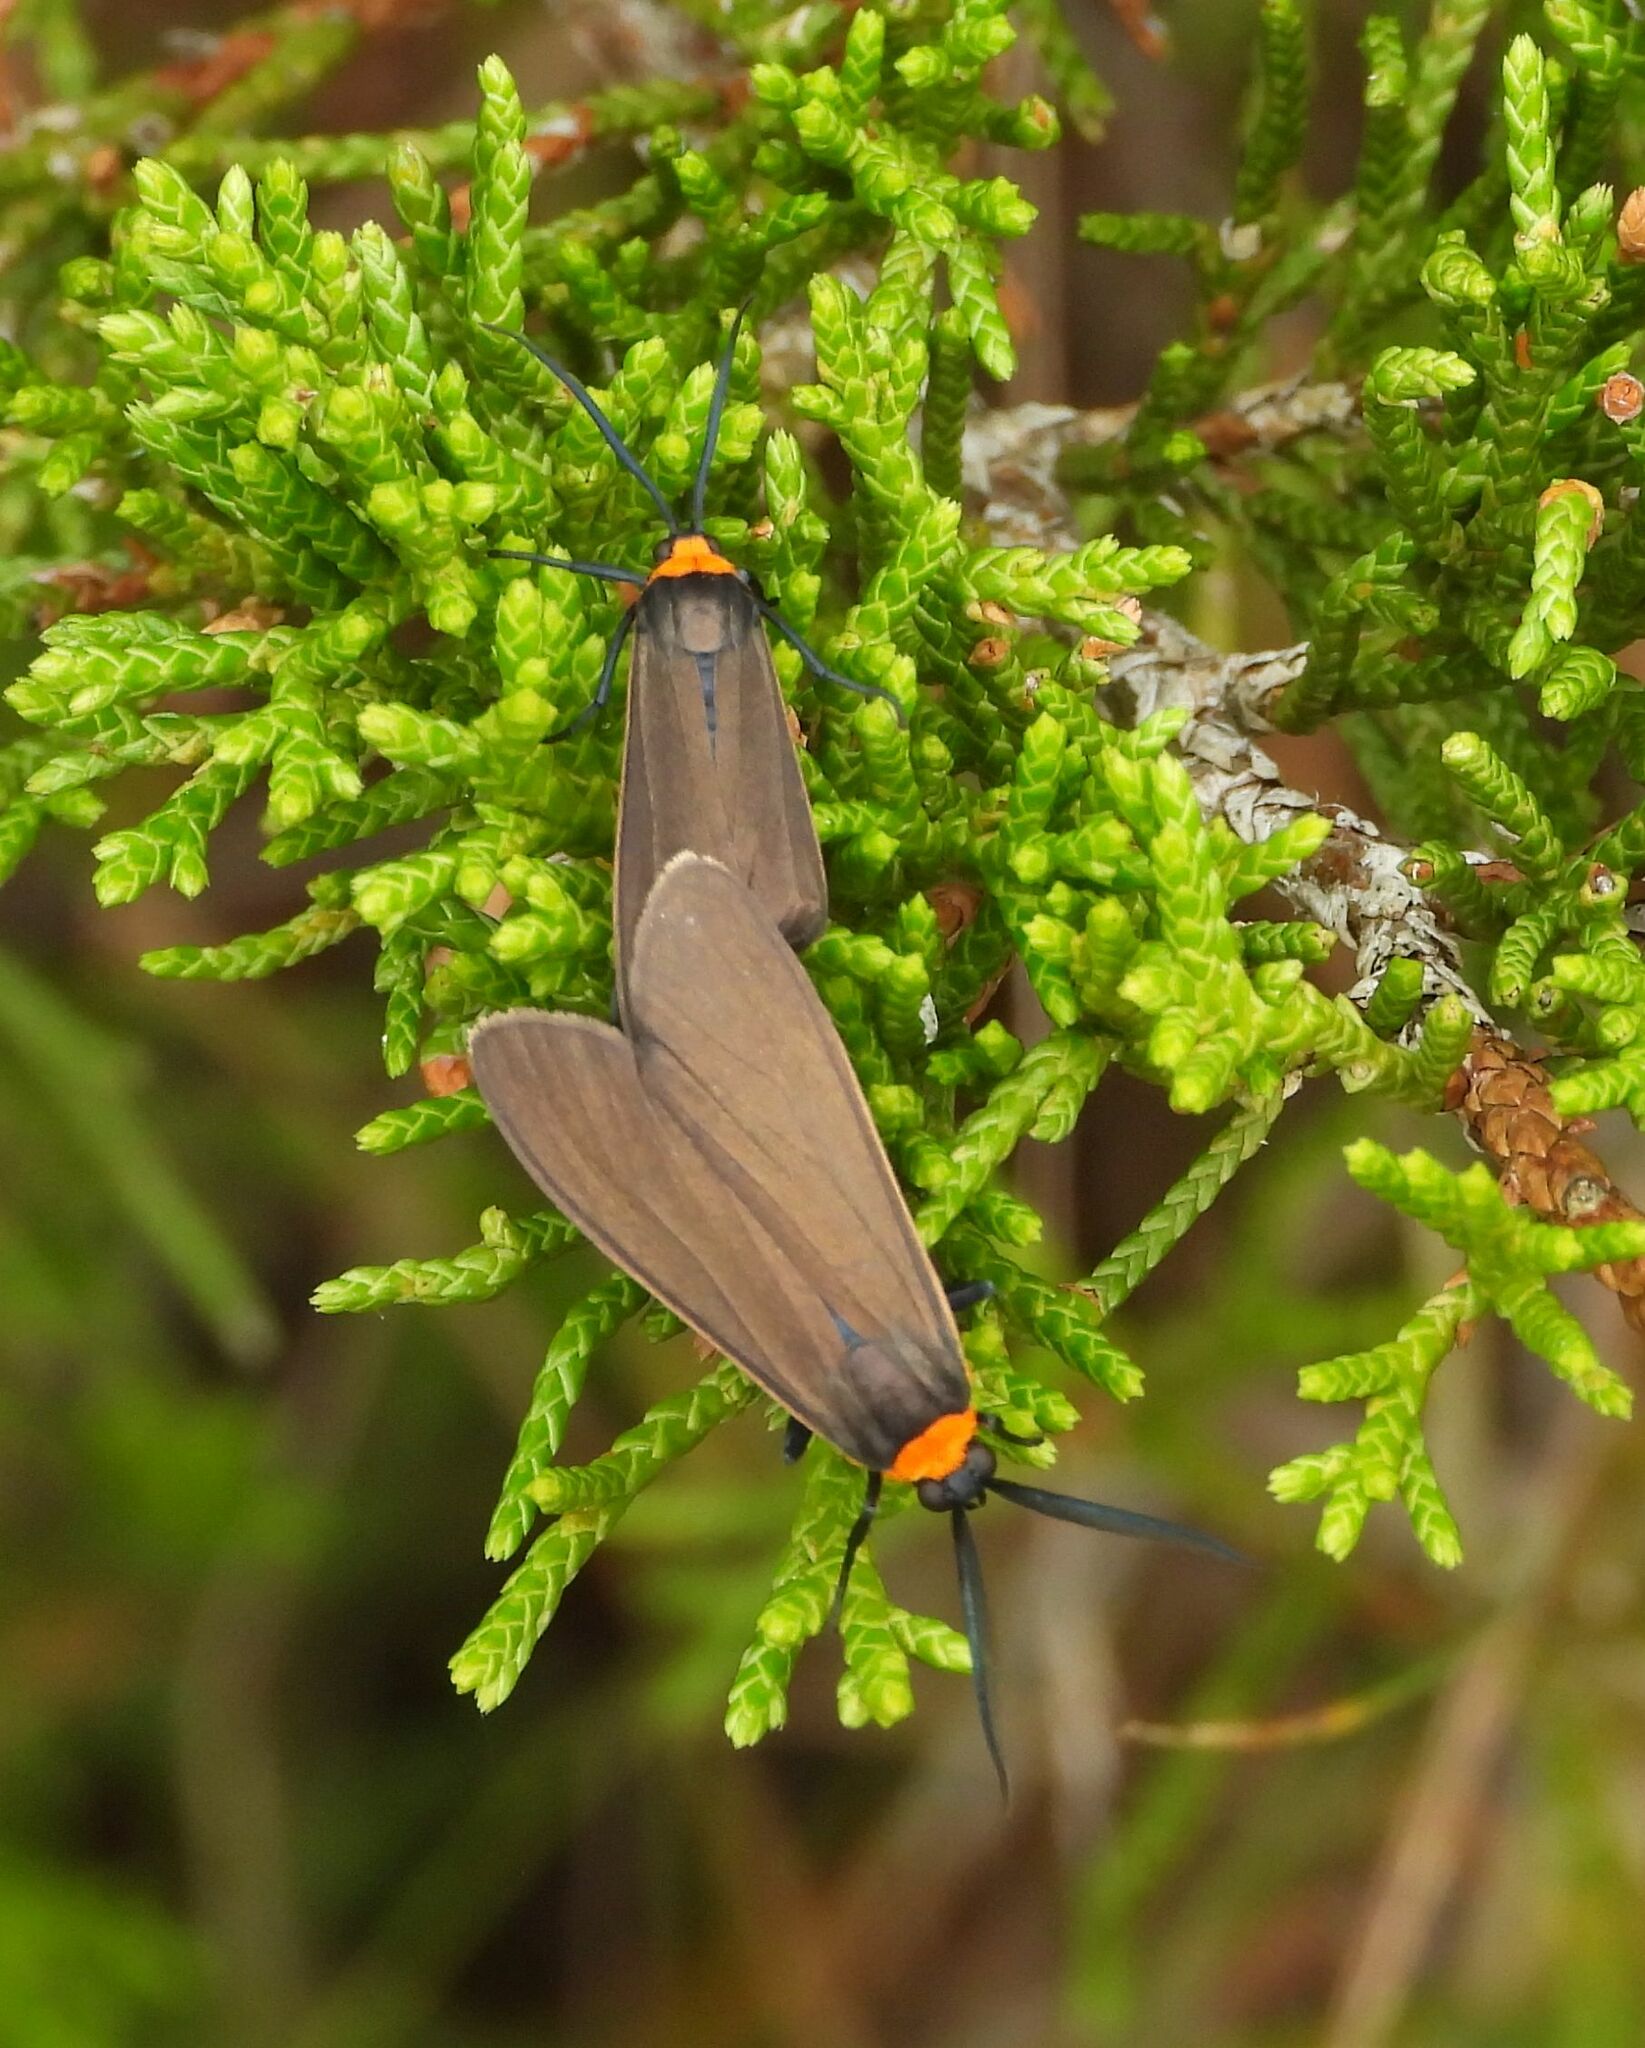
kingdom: Animalia
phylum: Arthropoda
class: Insecta
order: Lepidoptera
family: Erebidae
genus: Cisseps
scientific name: Cisseps fulvicollis
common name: Yellow-collared scape moth
